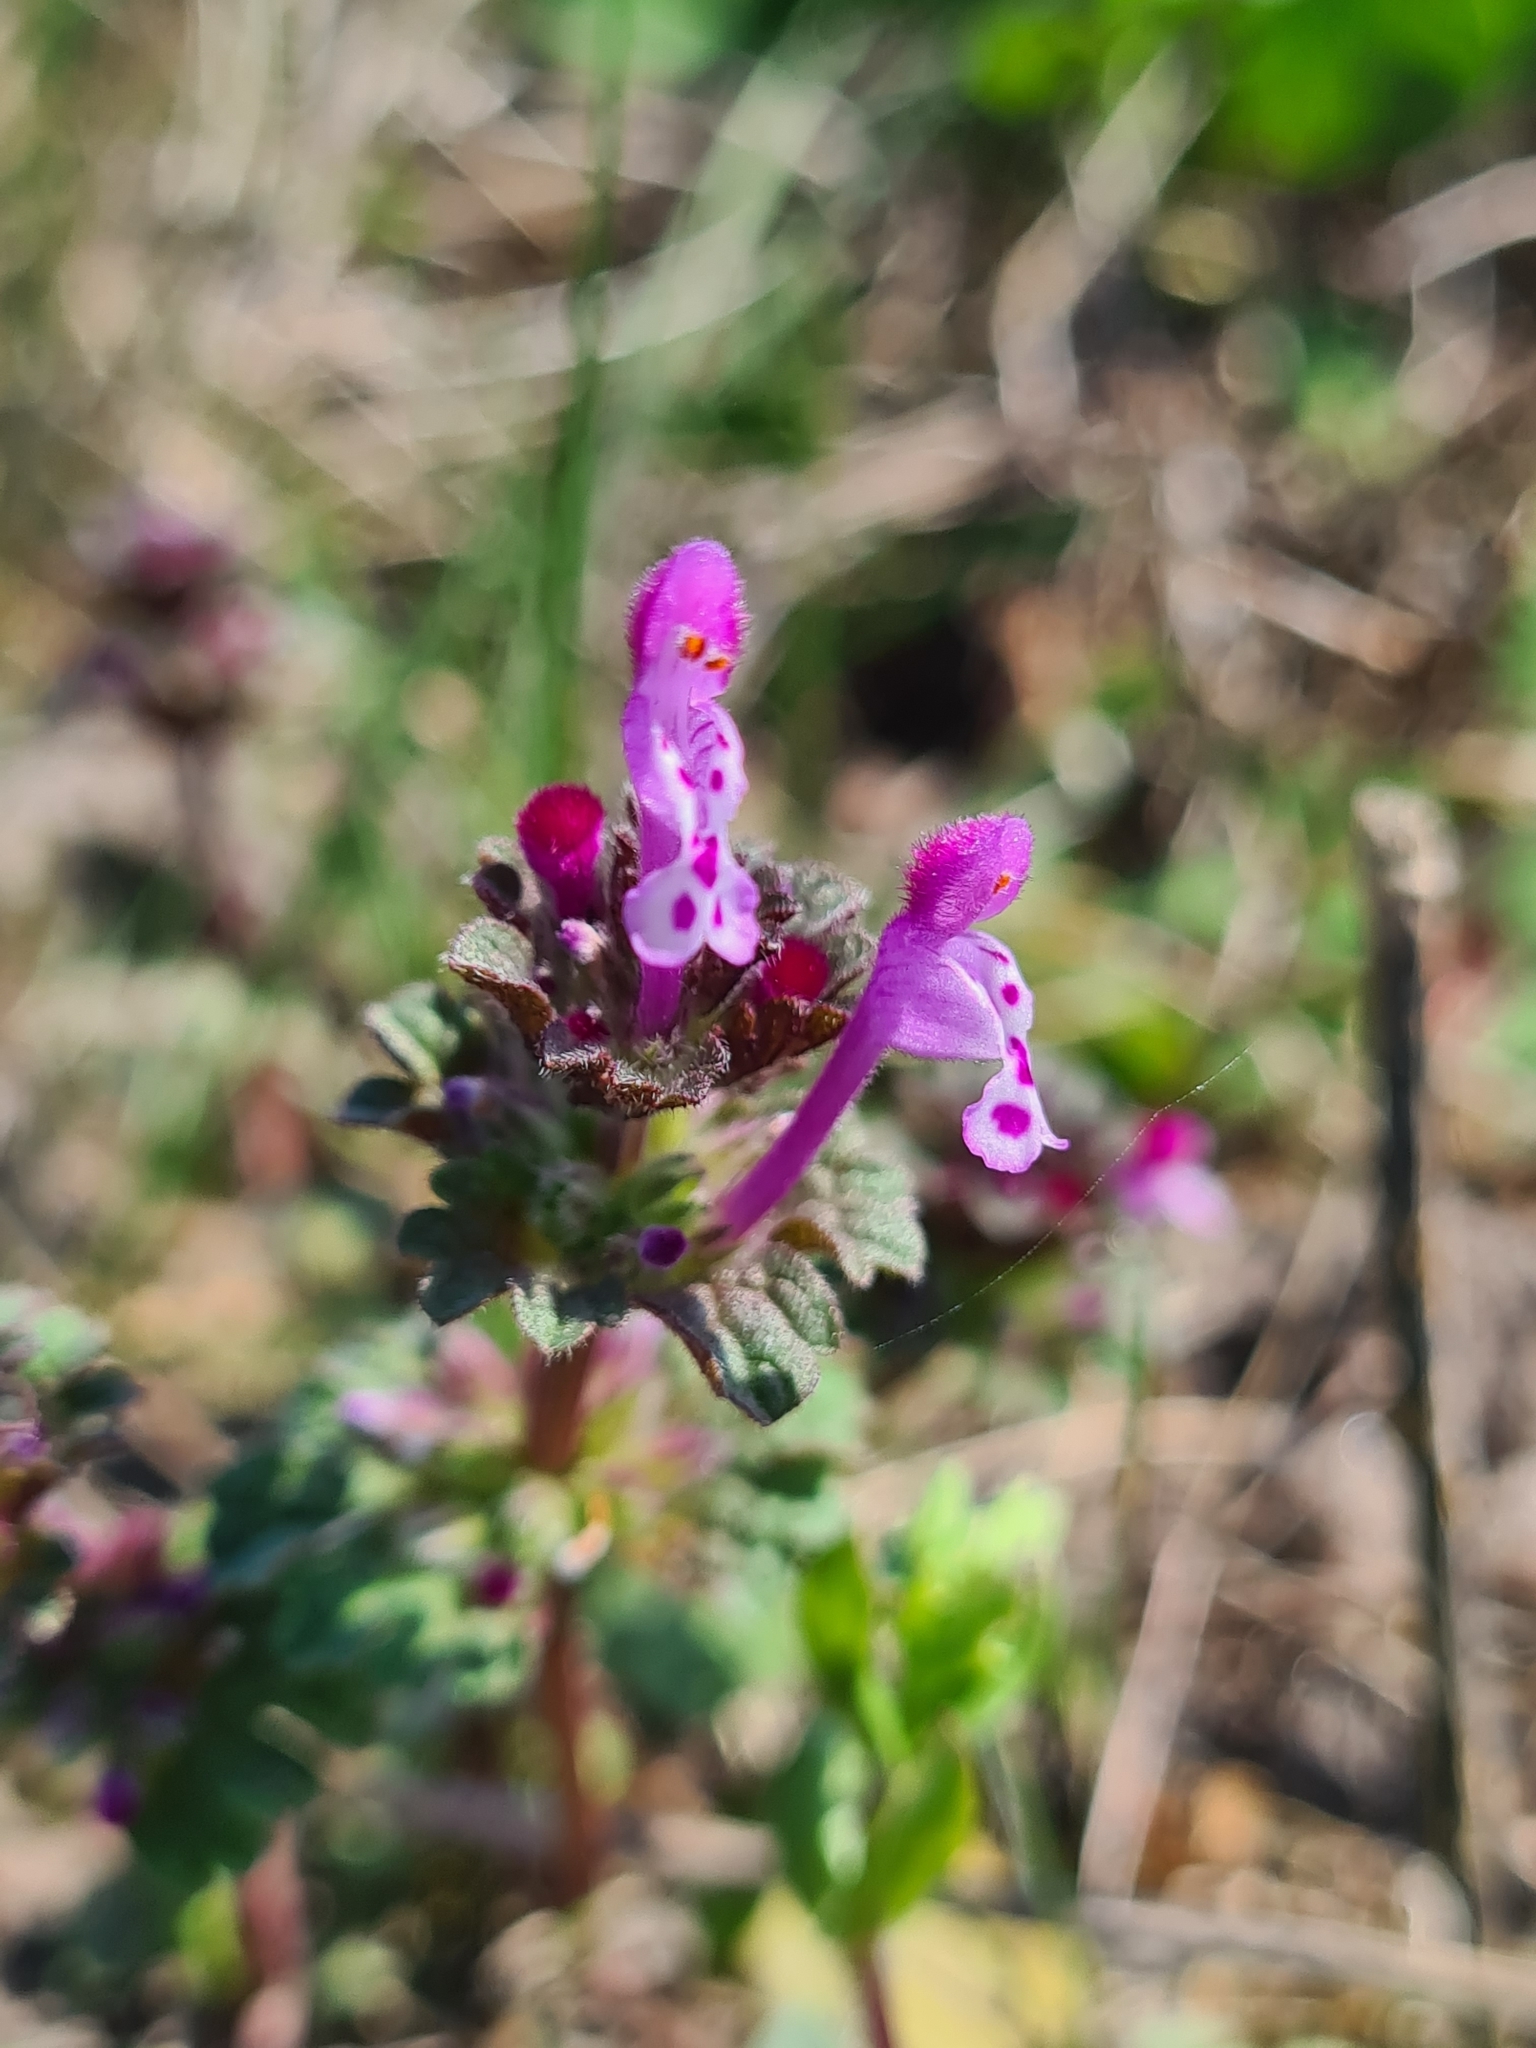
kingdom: Plantae
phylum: Tracheophyta
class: Magnoliopsida
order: Lamiales
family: Lamiaceae
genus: Lamium
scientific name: Lamium amplexicaule
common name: Henbit dead-nettle
